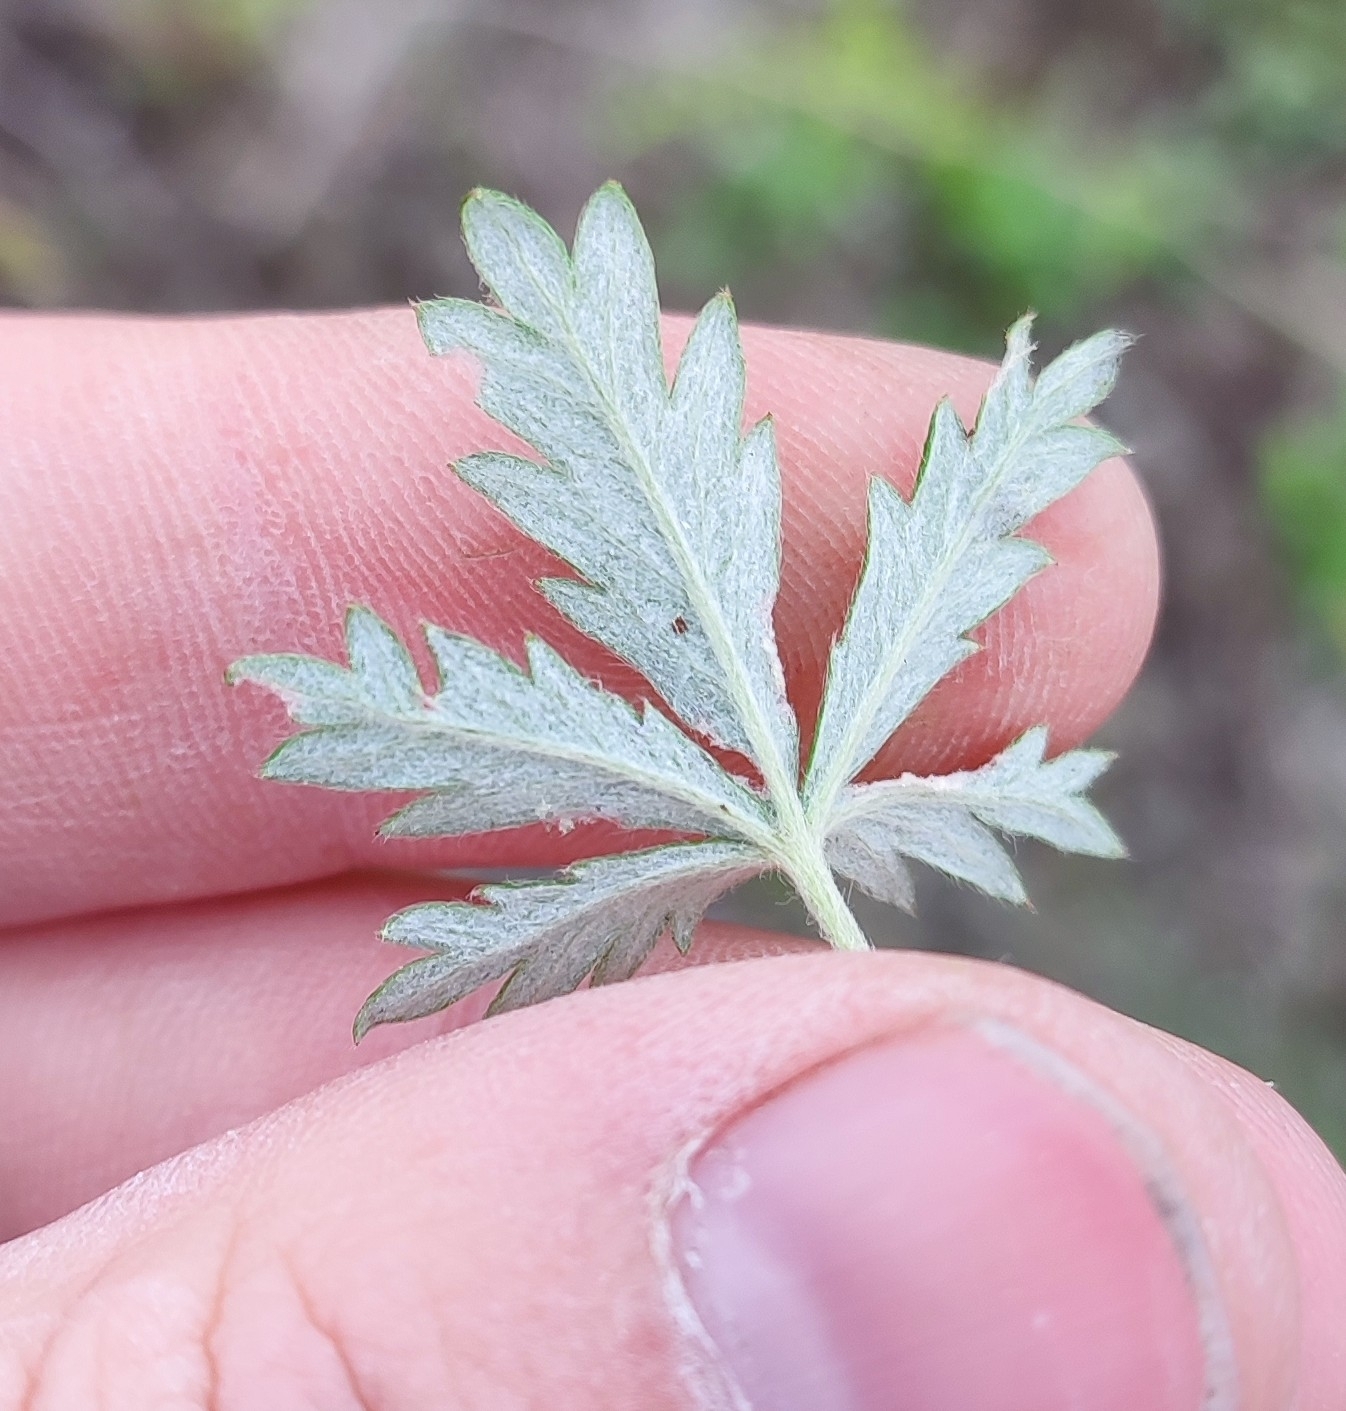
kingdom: Plantae
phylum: Tracheophyta
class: Magnoliopsida
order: Rosales
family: Rosaceae
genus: Potentilla
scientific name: Potentilla argentea
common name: Hoary cinquefoil
